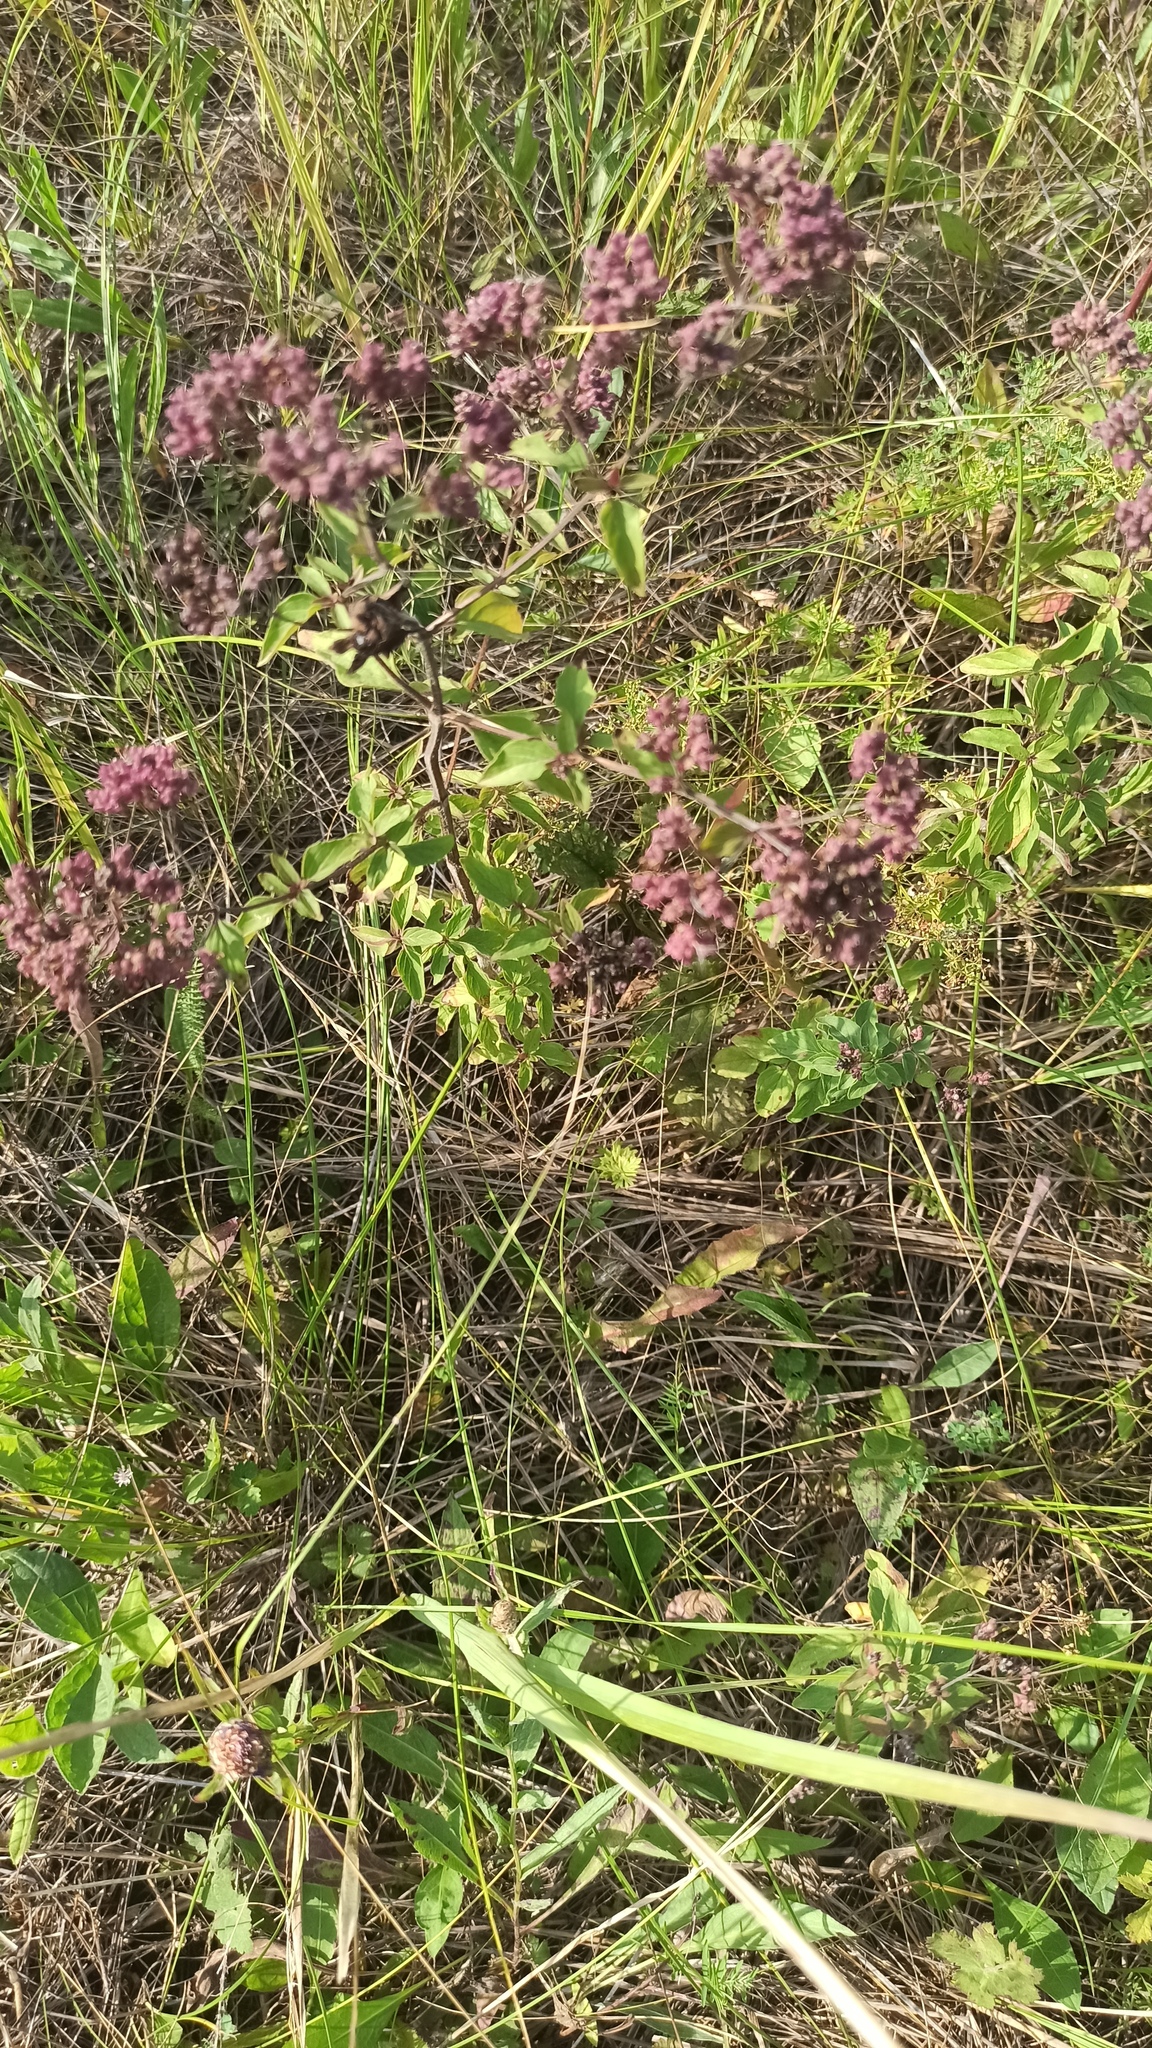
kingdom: Plantae
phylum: Tracheophyta
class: Magnoliopsida
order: Lamiales
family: Lamiaceae
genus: Origanum
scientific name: Origanum vulgare
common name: Wild marjoram
